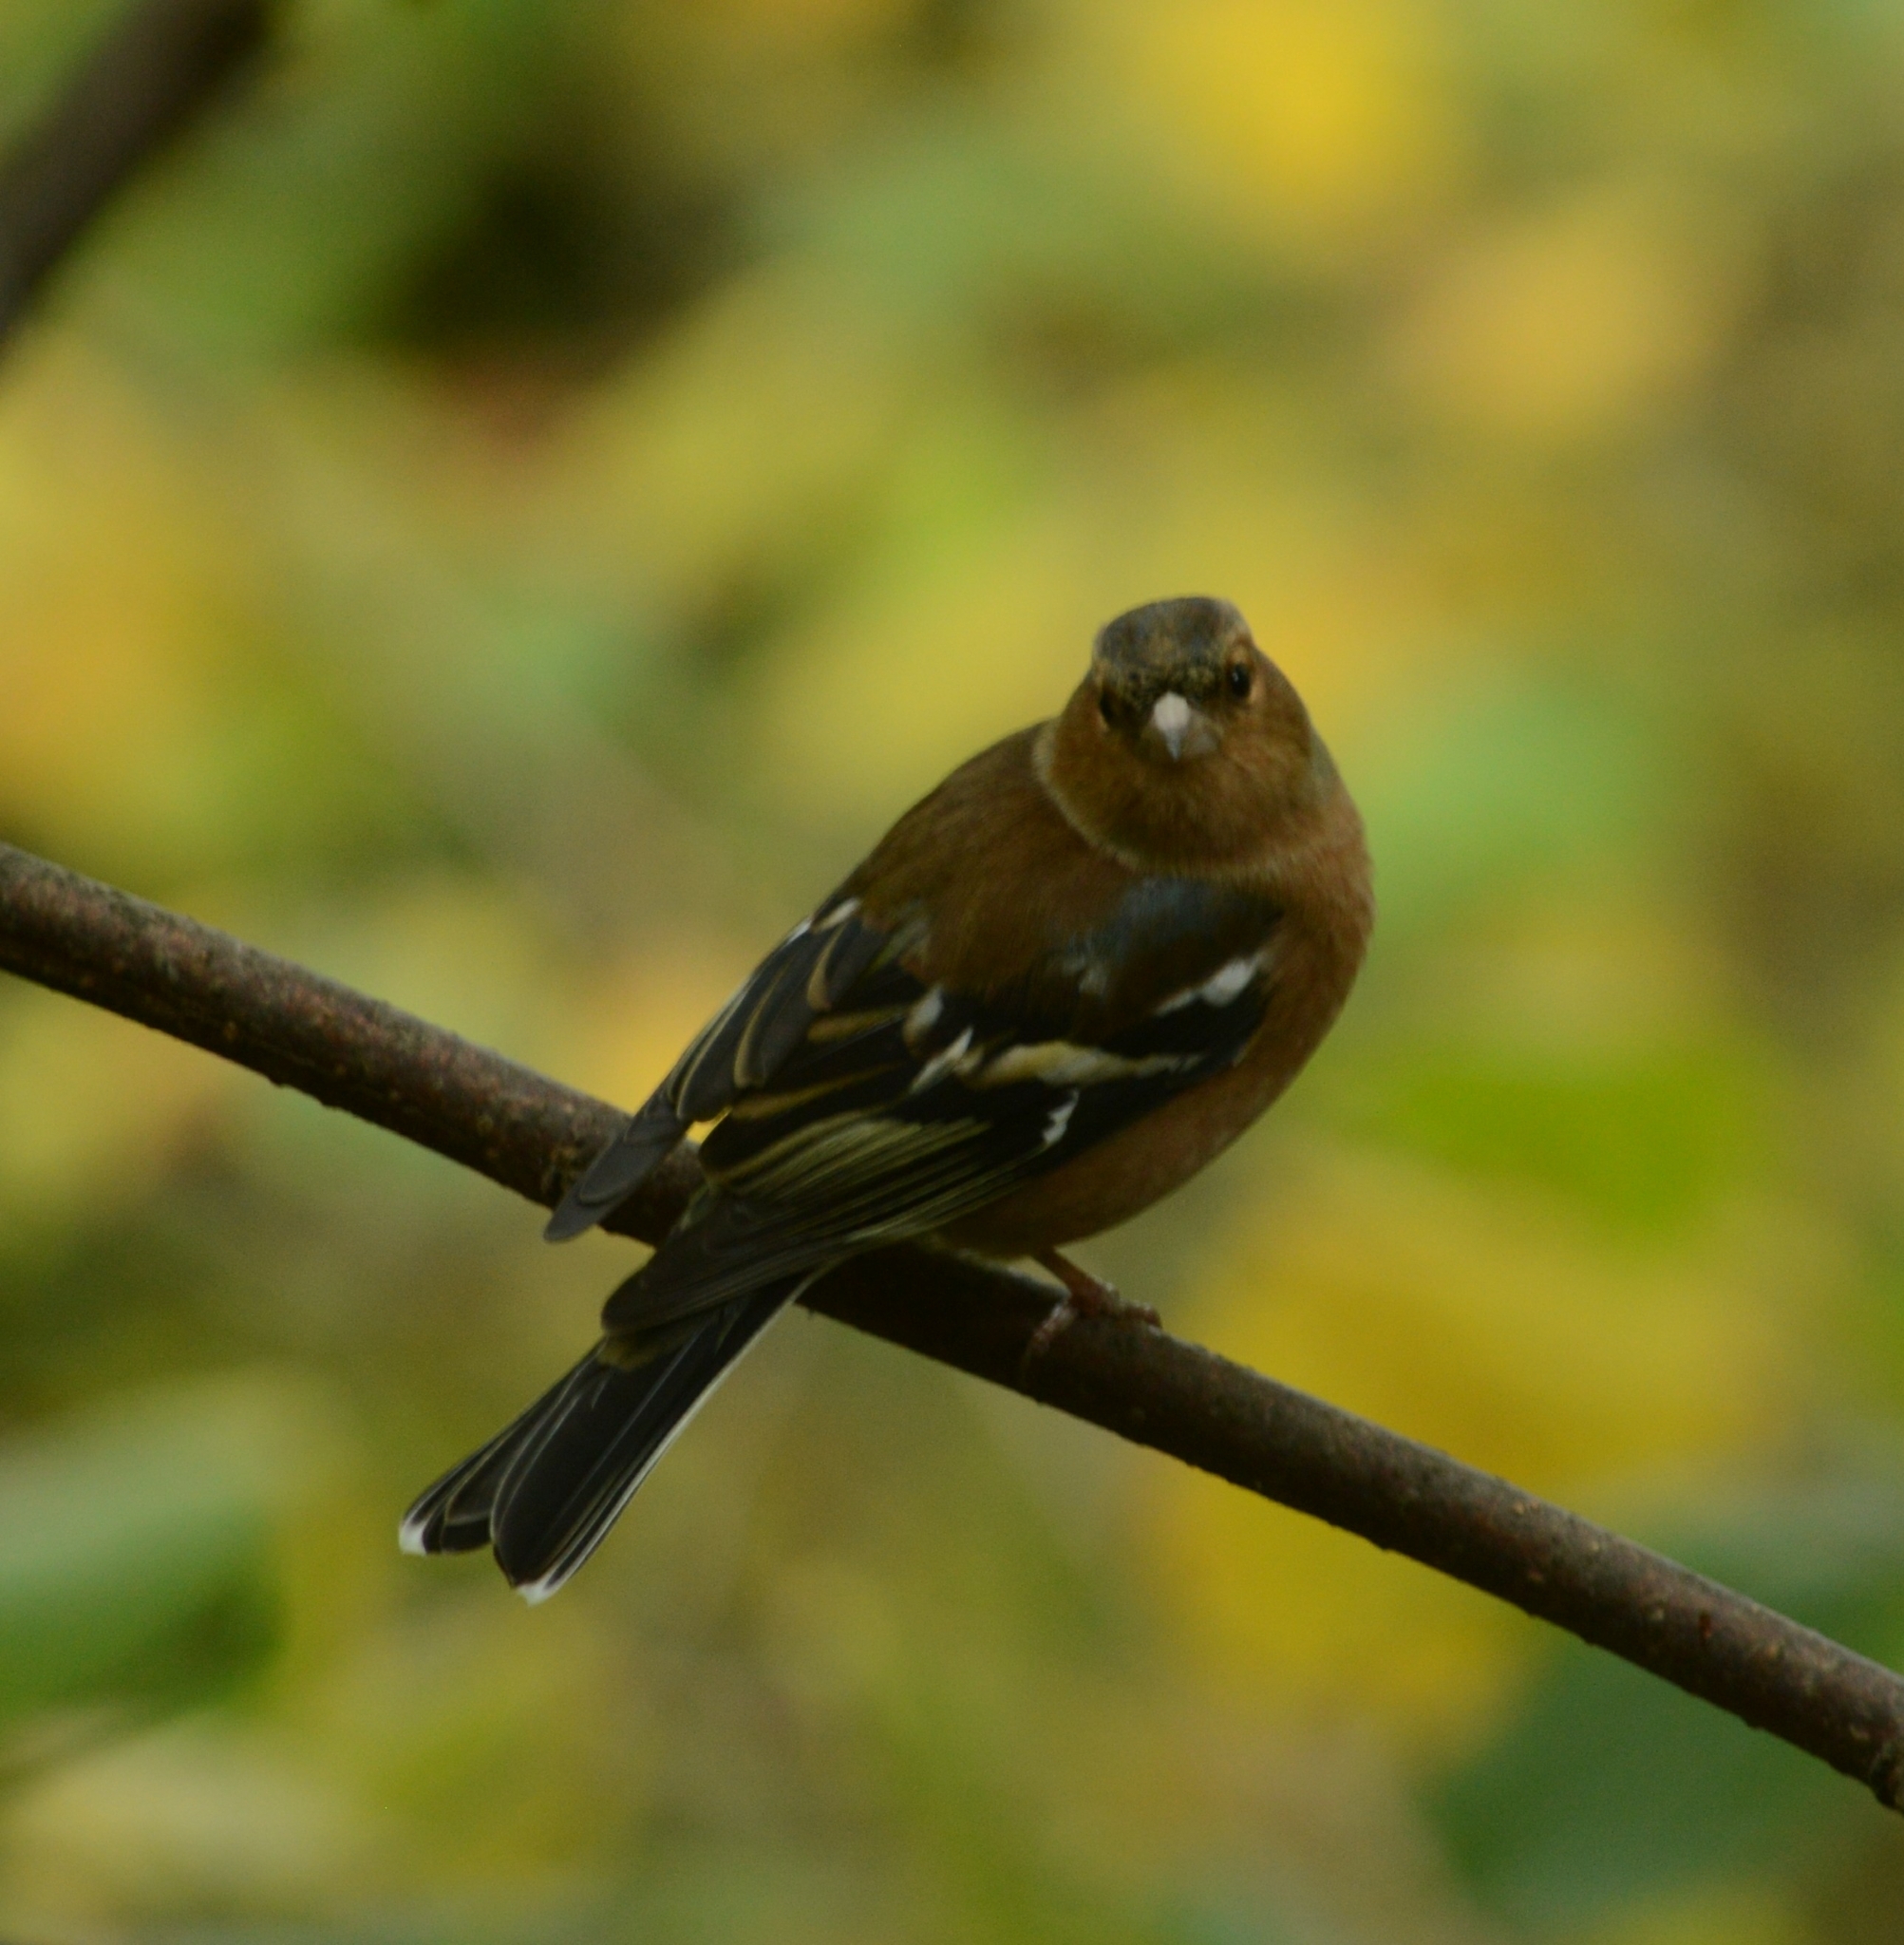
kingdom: Animalia
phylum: Chordata
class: Aves
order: Passeriformes
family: Fringillidae
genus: Fringilla
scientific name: Fringilla coelebs
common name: Common chaffinch
